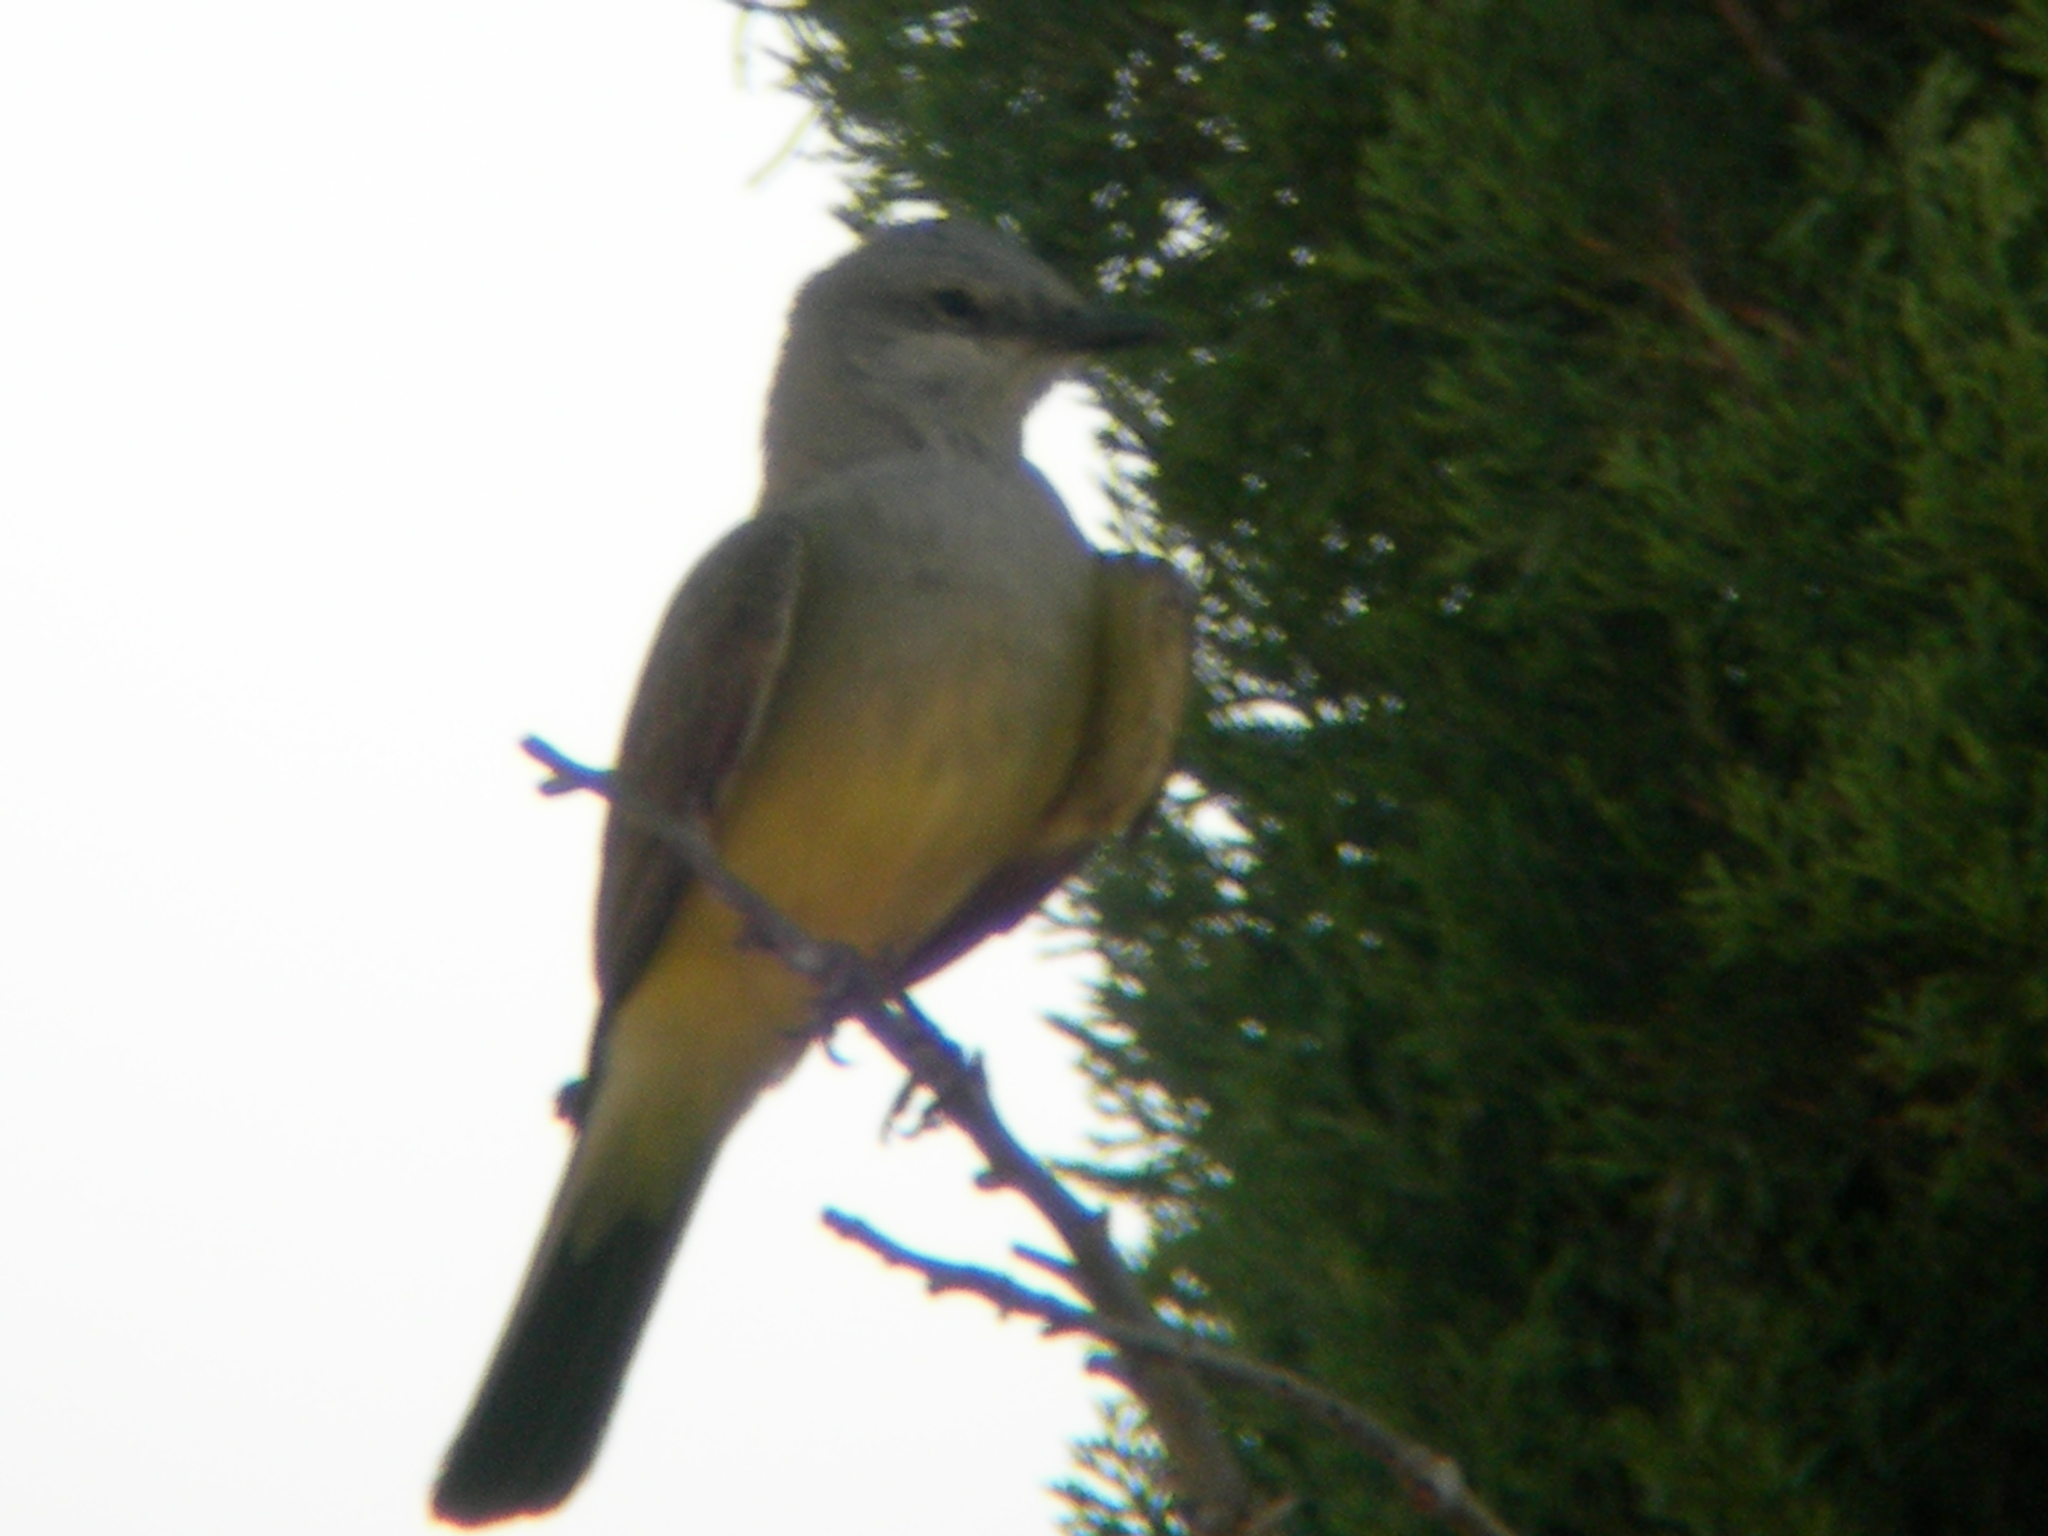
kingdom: Animalia
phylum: Chordata
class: Aves
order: Passeriformes
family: Tyrannidae
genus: Tyrannus
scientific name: Tyrannus verticalis
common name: Western kingbird
